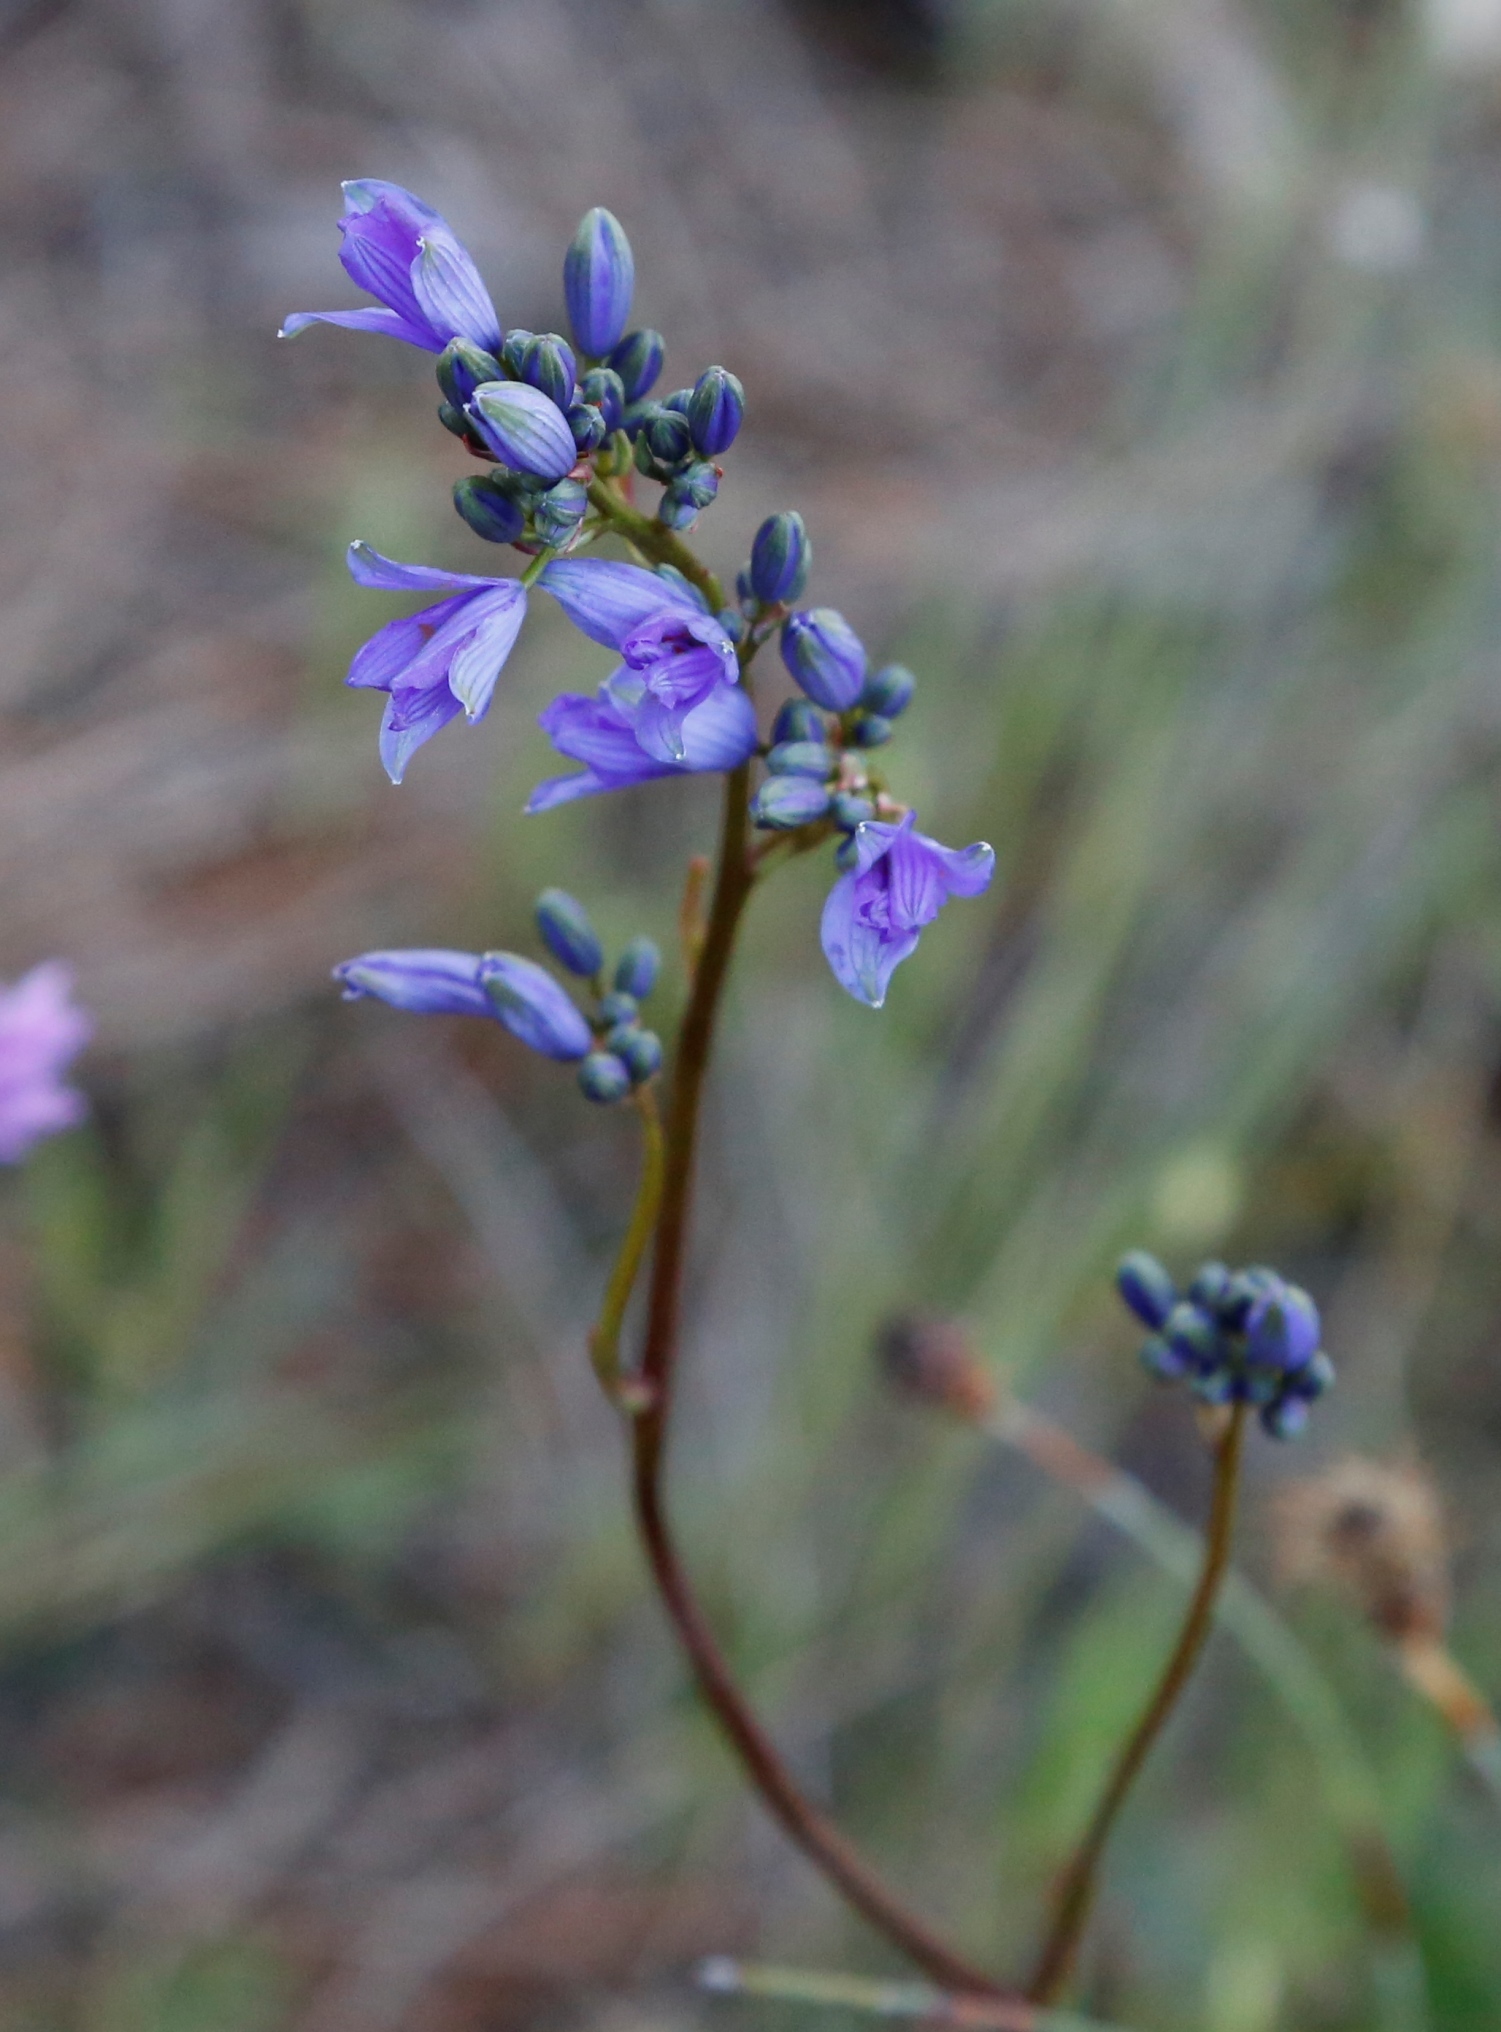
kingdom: Plantae
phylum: Tracheophyta
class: Liliopsida
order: Asparagales
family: Asphodelaceae
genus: Chamaescilla
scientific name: Chamaescilla spiralis
